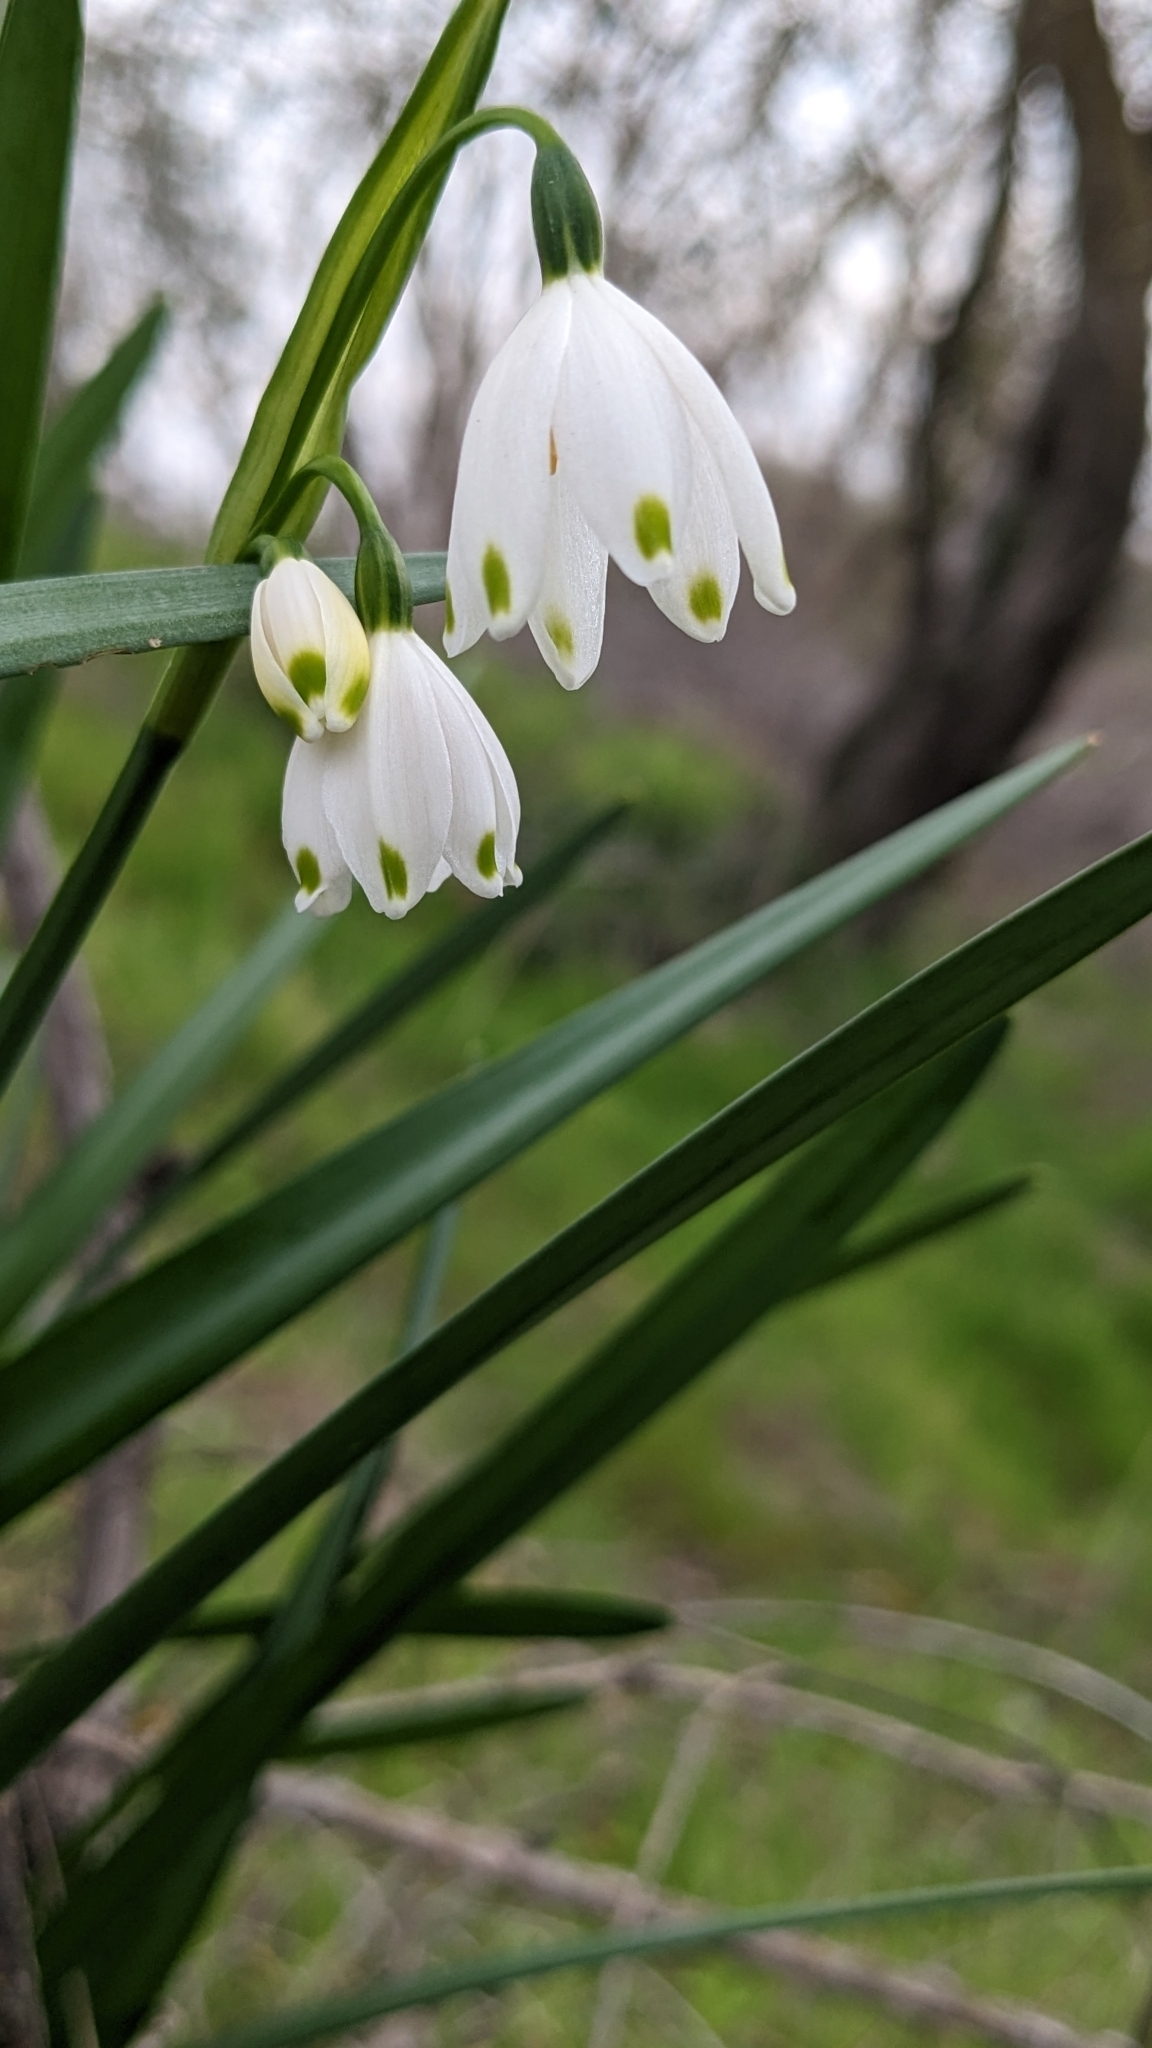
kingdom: Plantae
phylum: Tracheophyta
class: Liliopsida
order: Asparagales
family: Amaryllidaceae
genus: Leucojum
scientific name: Leucojum aestivum
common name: Summer snowflake
